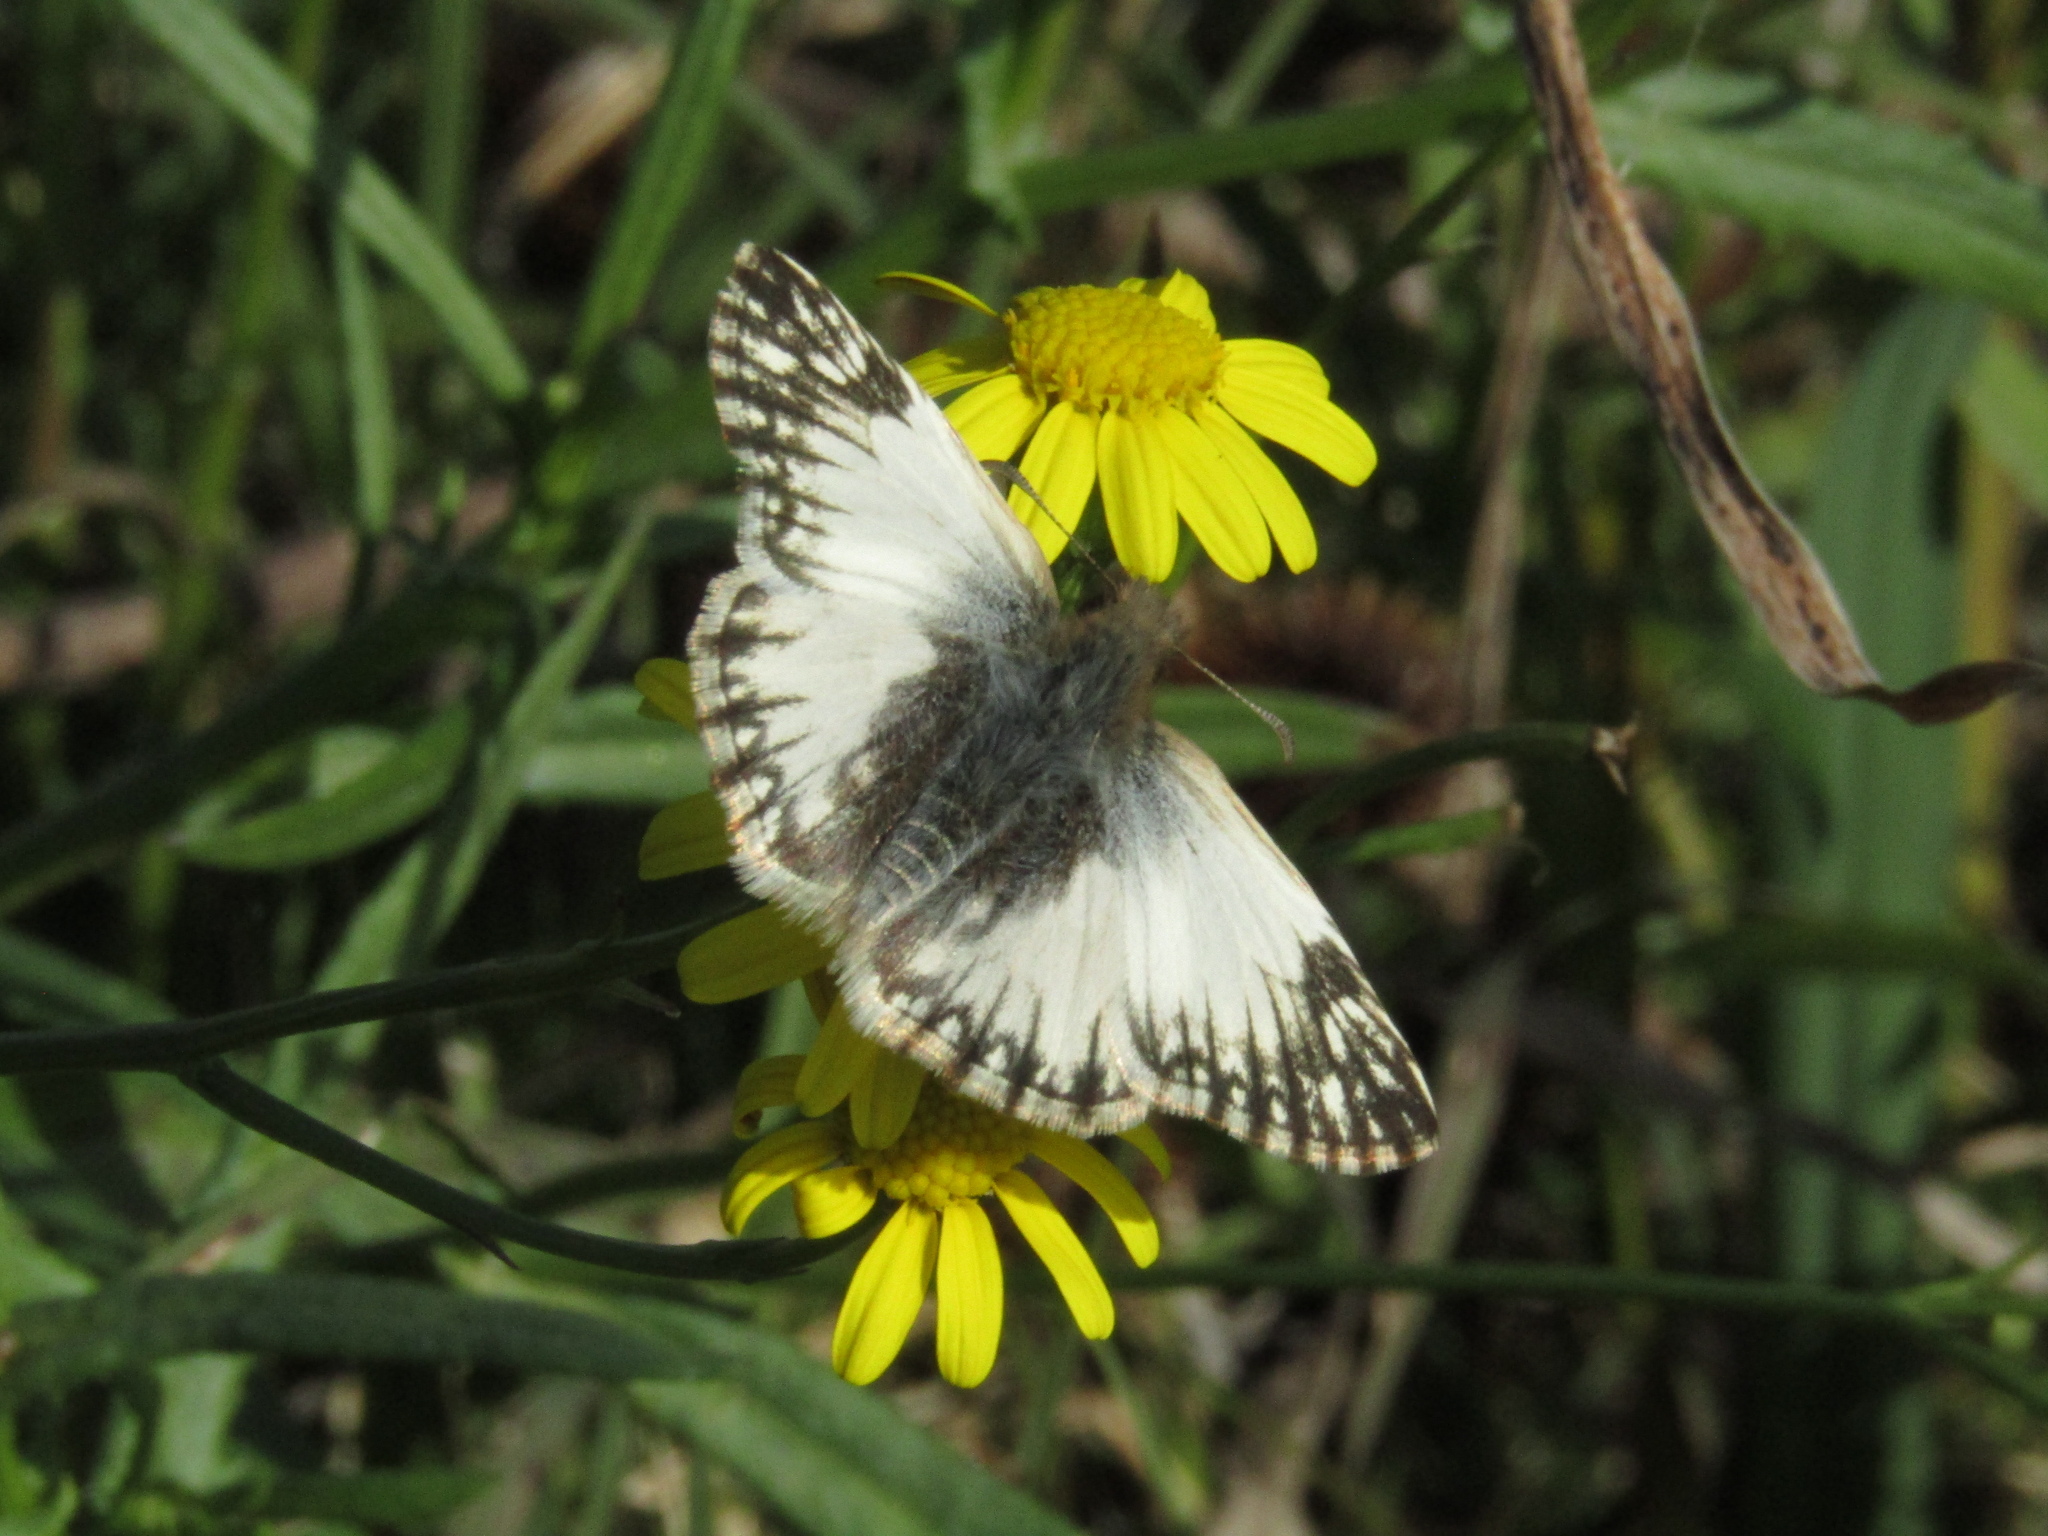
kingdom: Animalia
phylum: Arthropoda
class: Insecta
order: Lepidoptera
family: Hesperiidae
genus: Heliopetes
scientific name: Heliopetes omrina
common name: Stained white-skipper
